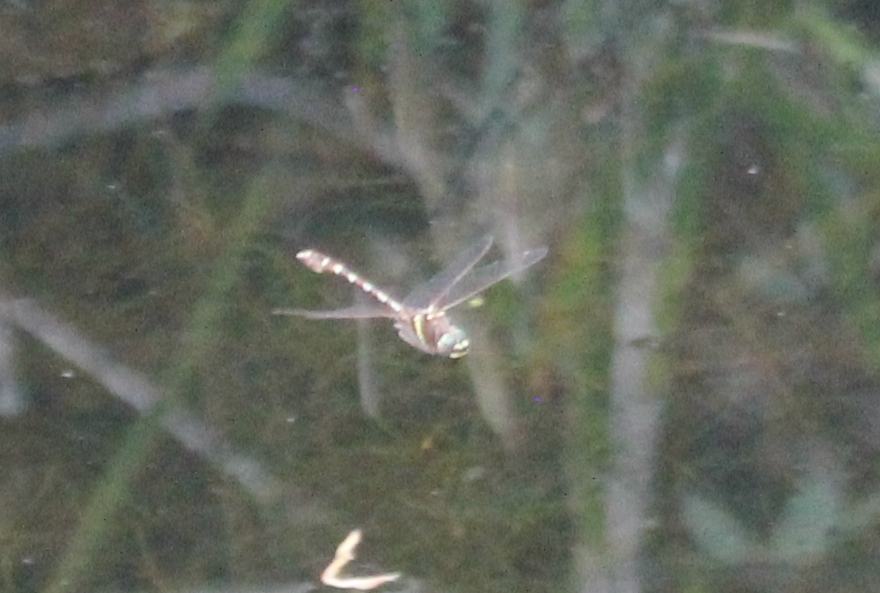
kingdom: Animalia
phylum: Arthropoda
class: Insecta
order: Odonata
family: Macromiidae
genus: Didymops
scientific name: Didymops transversa
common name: Stream cruiser
